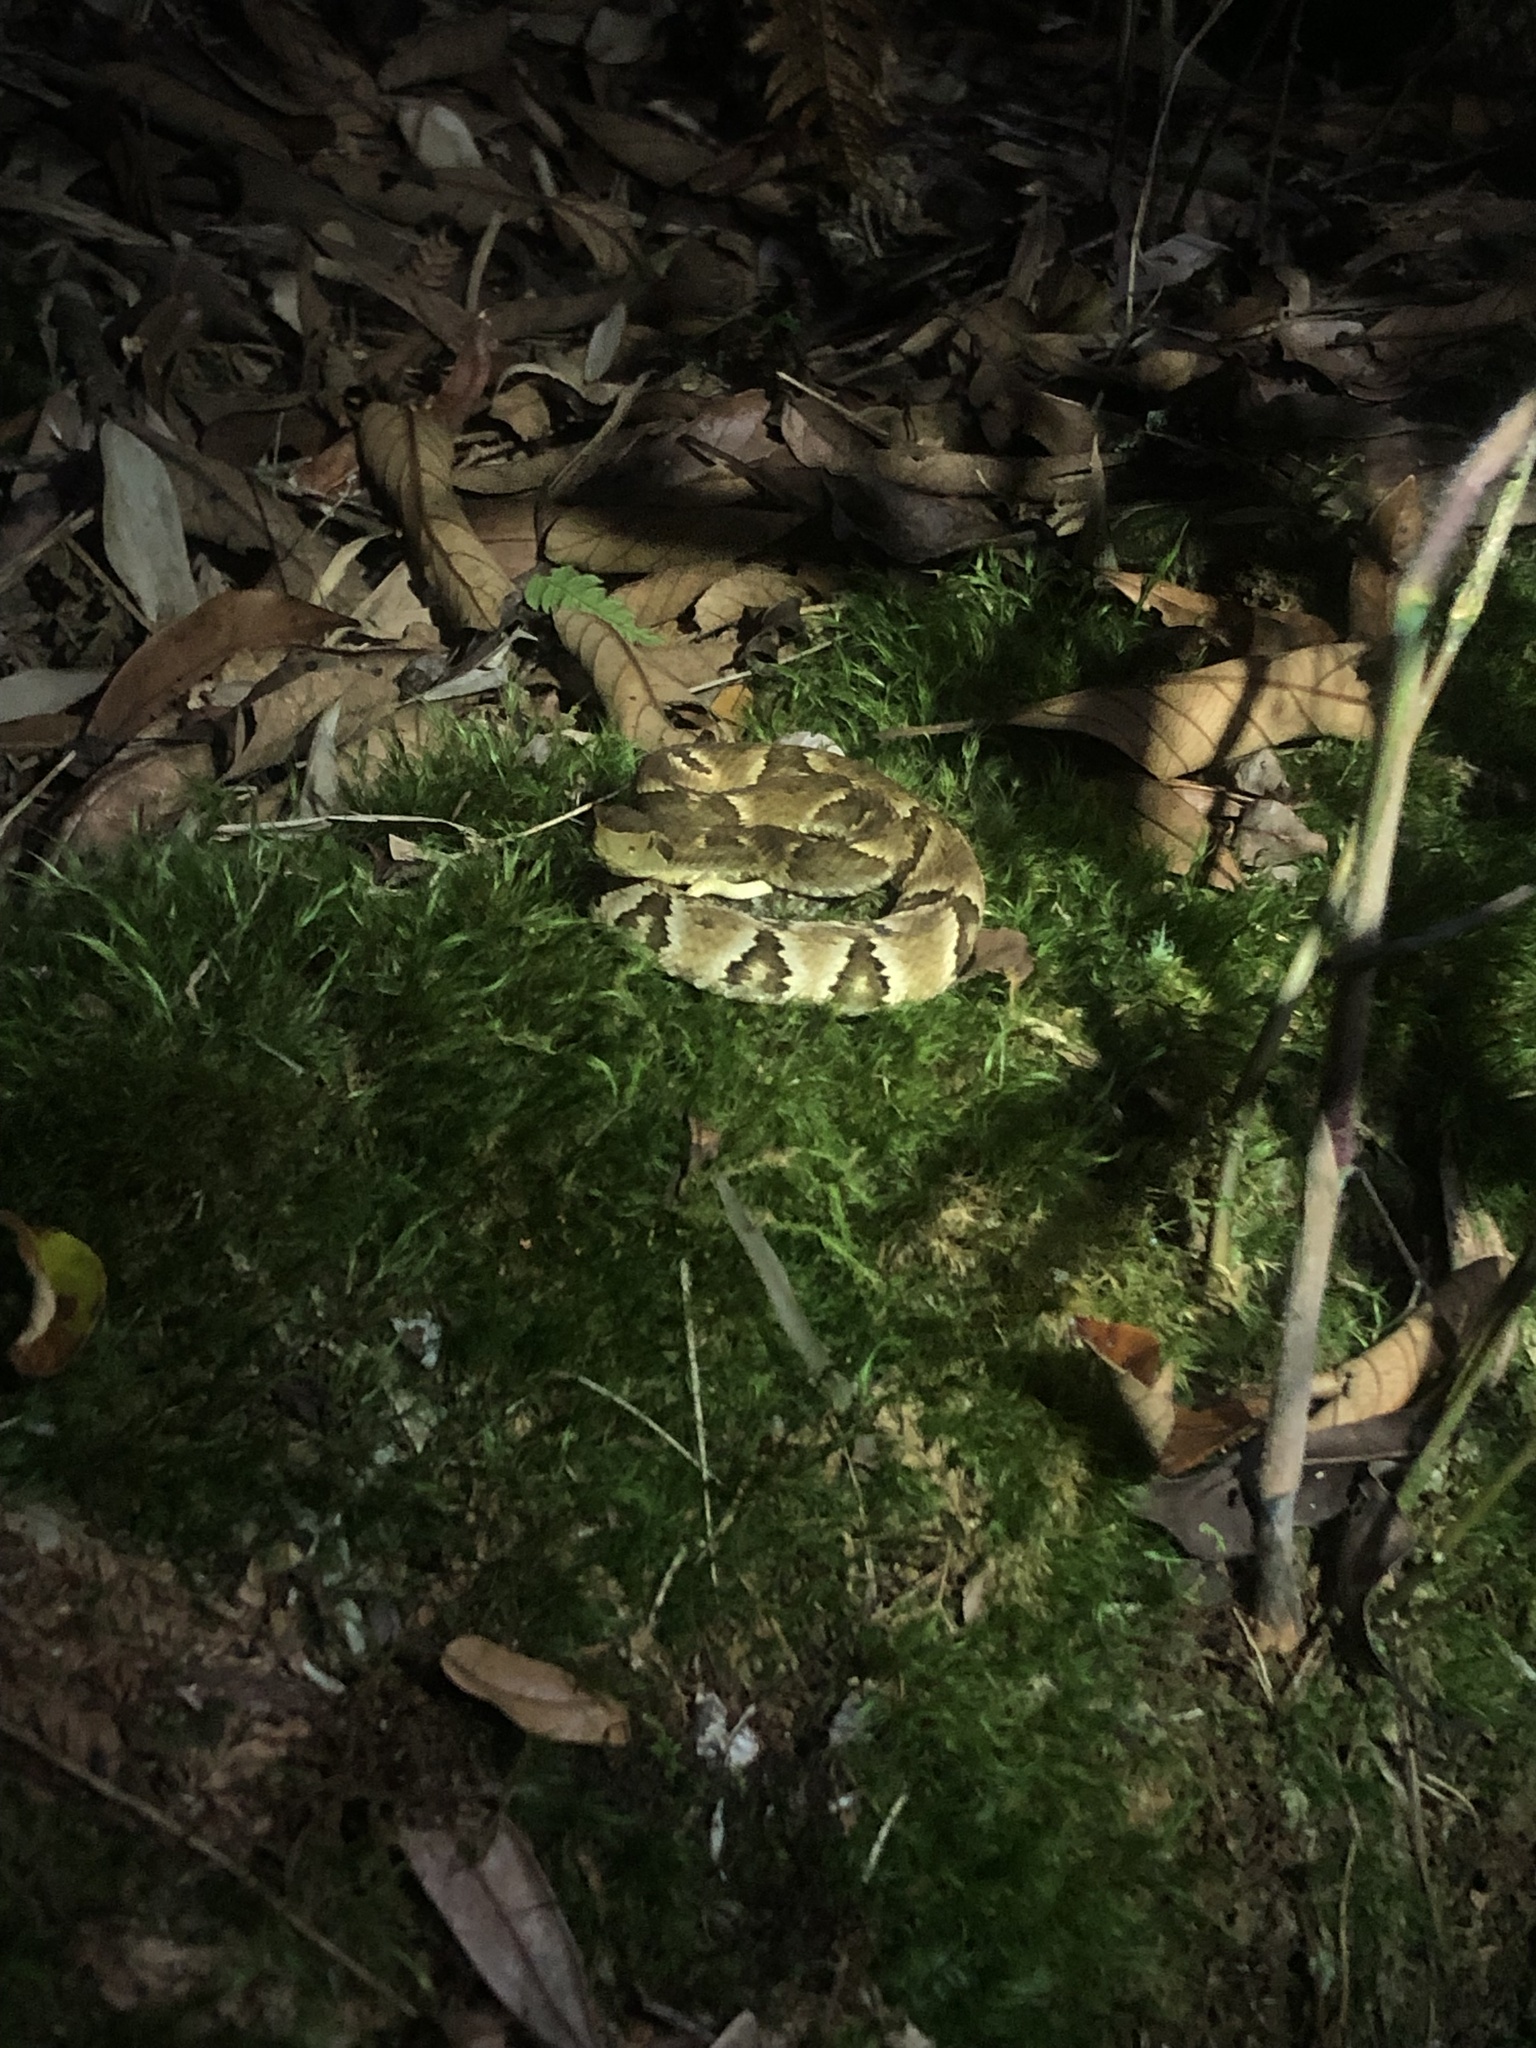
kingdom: Animalia
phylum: Chordata
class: Squamata
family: Viperidae
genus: Bothrops
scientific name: Bothrops jararaca
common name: Jararaca
